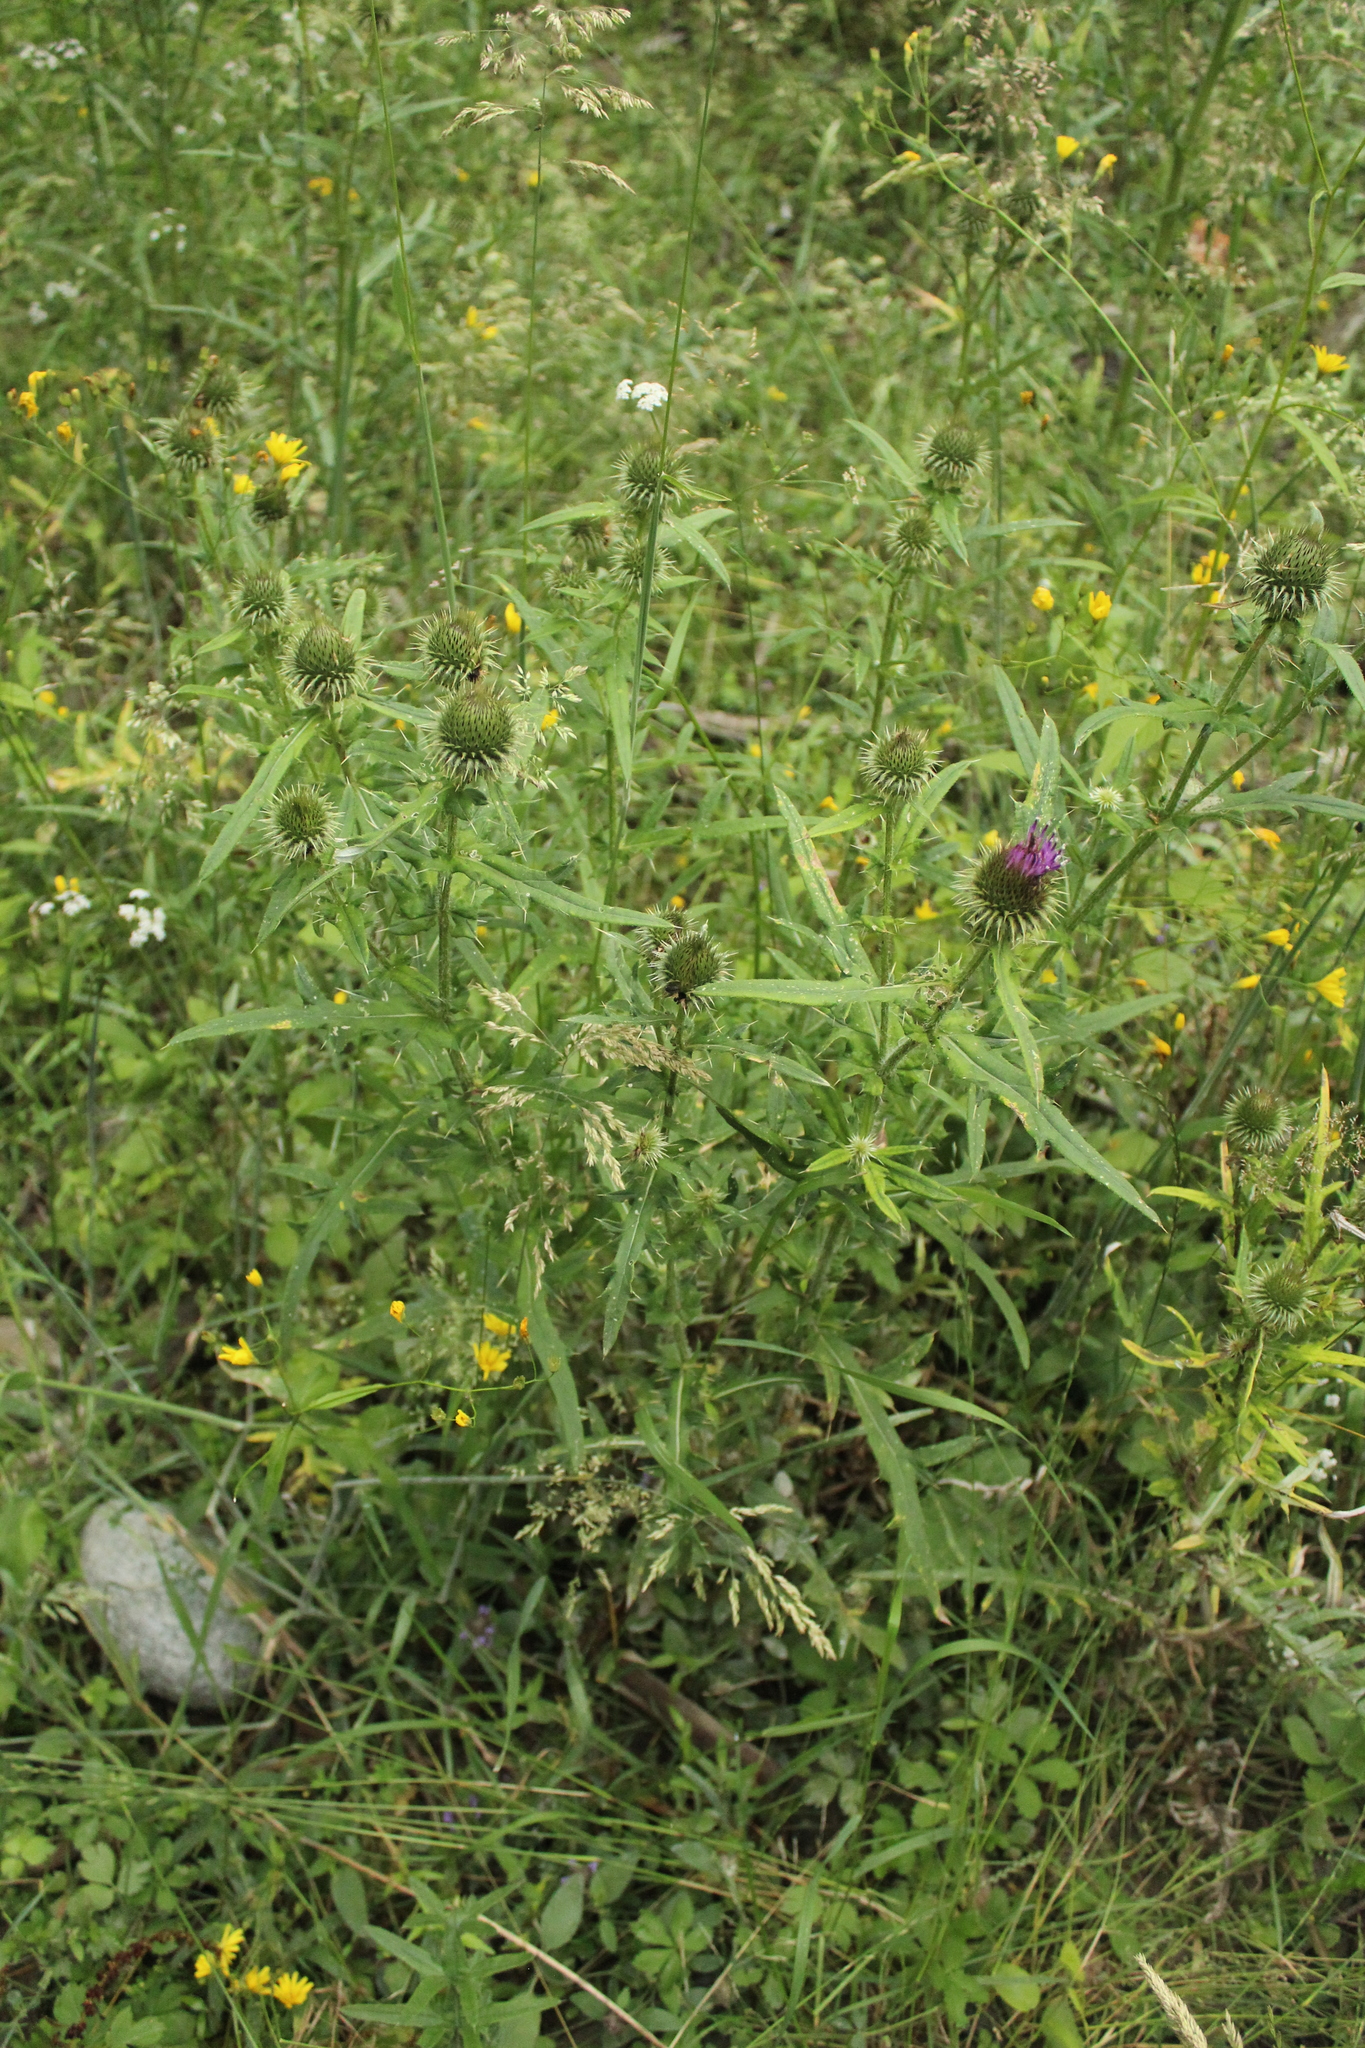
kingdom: Plantae
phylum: Tracheophyta
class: Magnoliopsida
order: Asterales
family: Asteraceae
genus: Lophiolepis
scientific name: Lophiolepis ciliata
